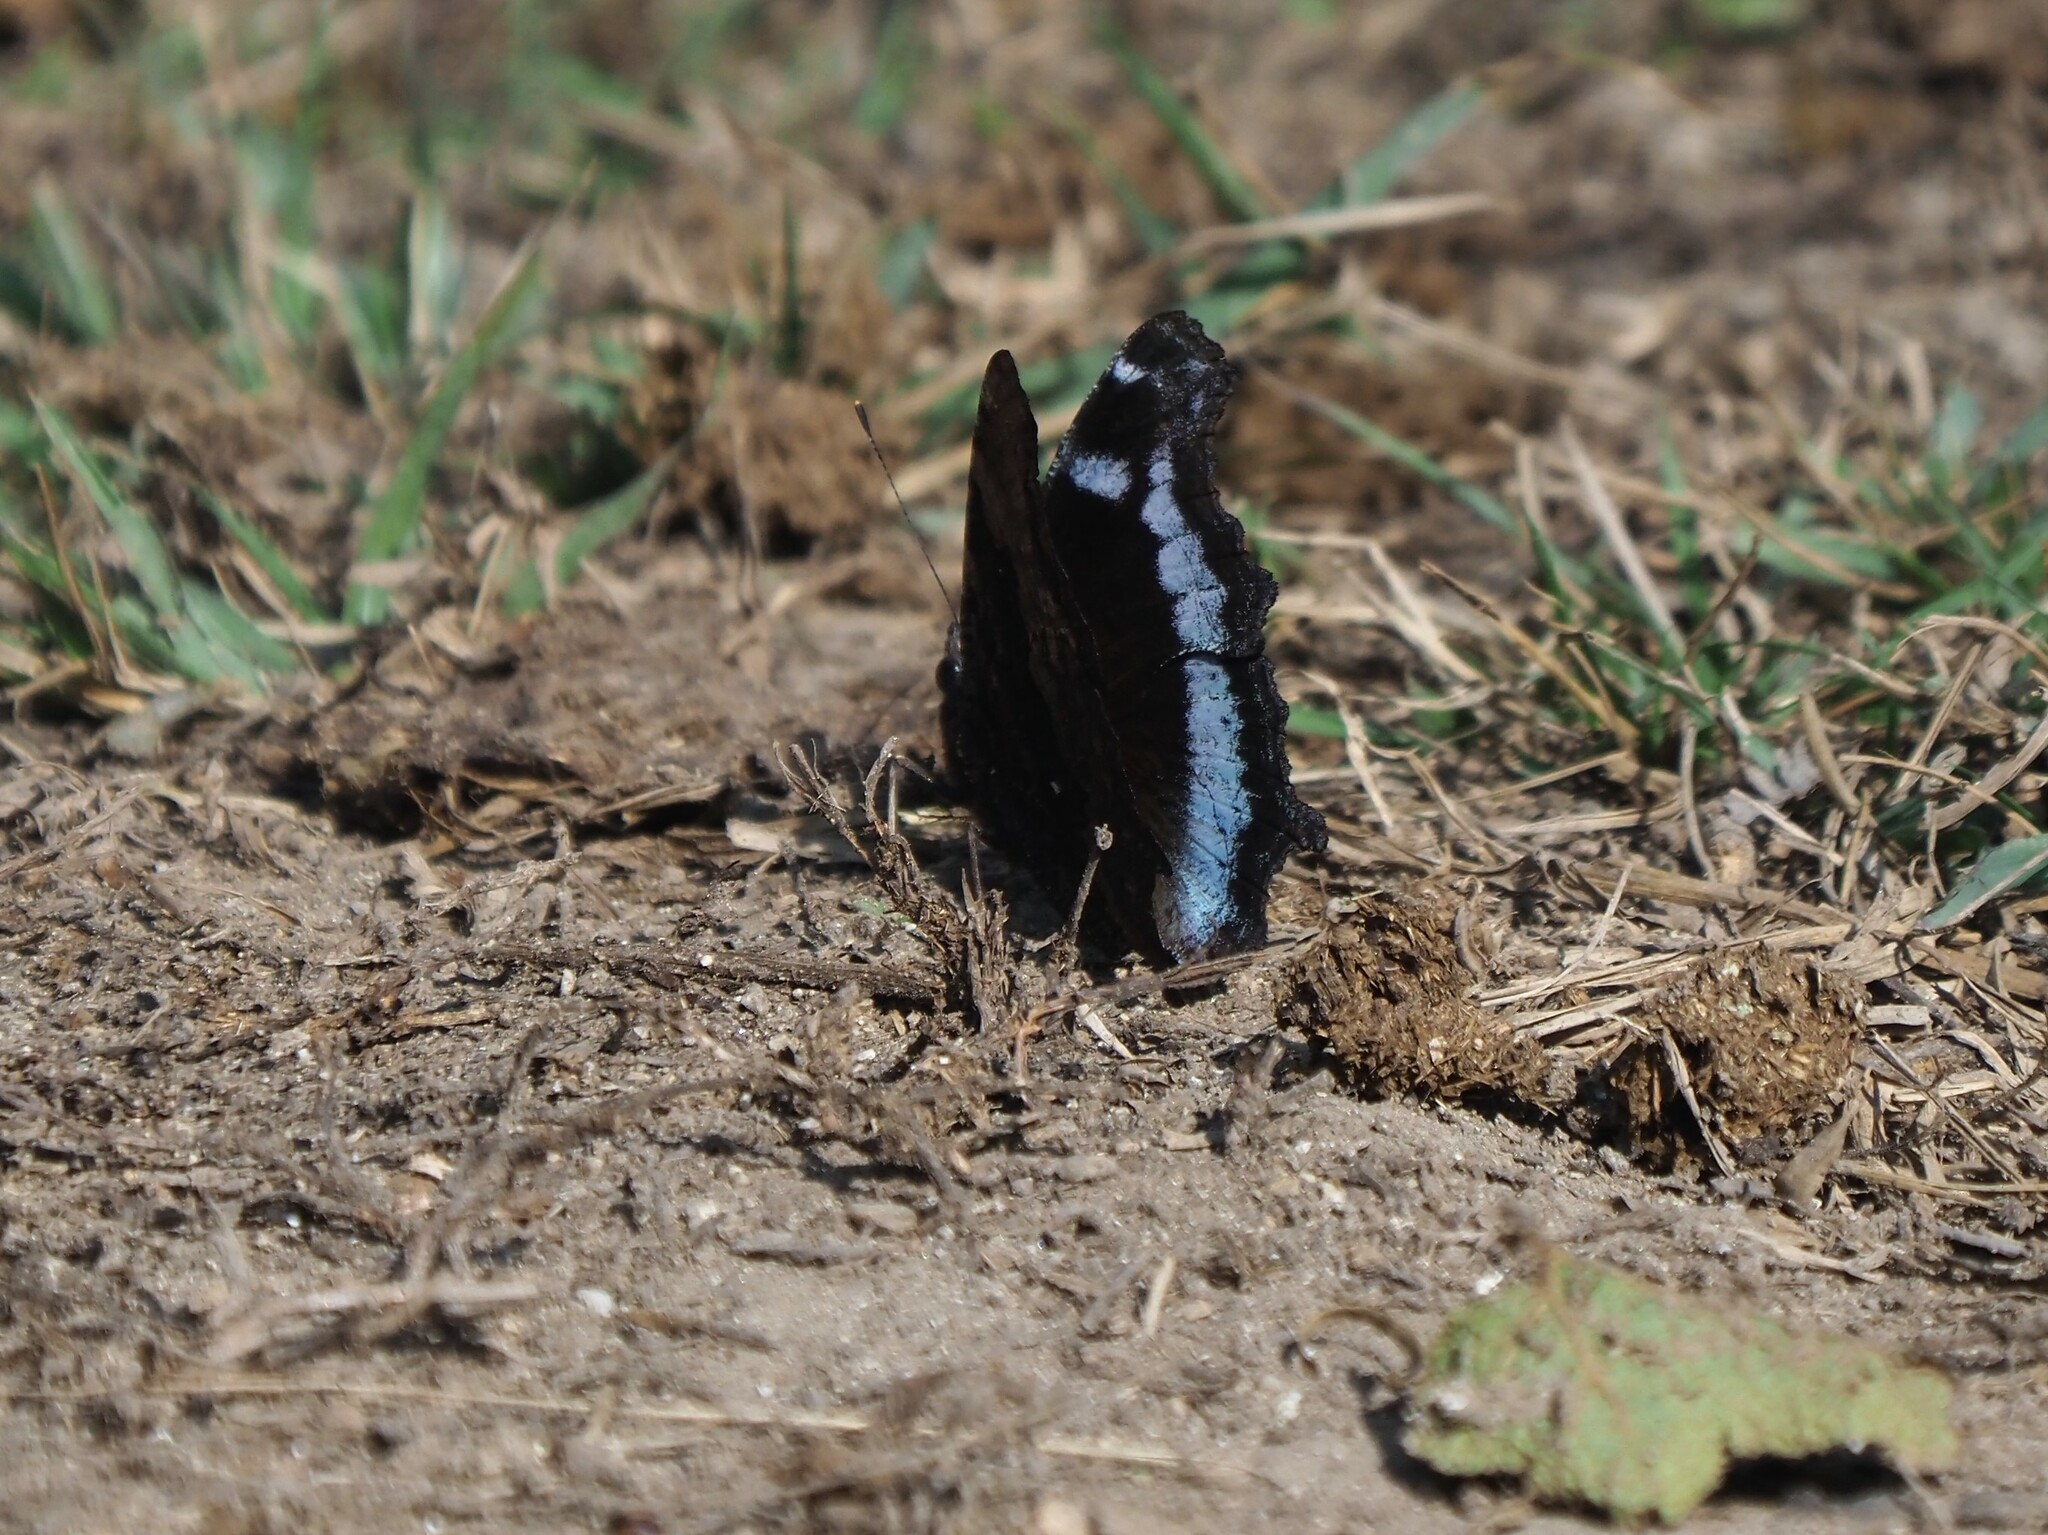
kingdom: Animalia
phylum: Arthropoda
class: Insecta
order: Lepidoptera
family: Nymphalidae
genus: Vanessa
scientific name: Vanessa Kaniska canace
